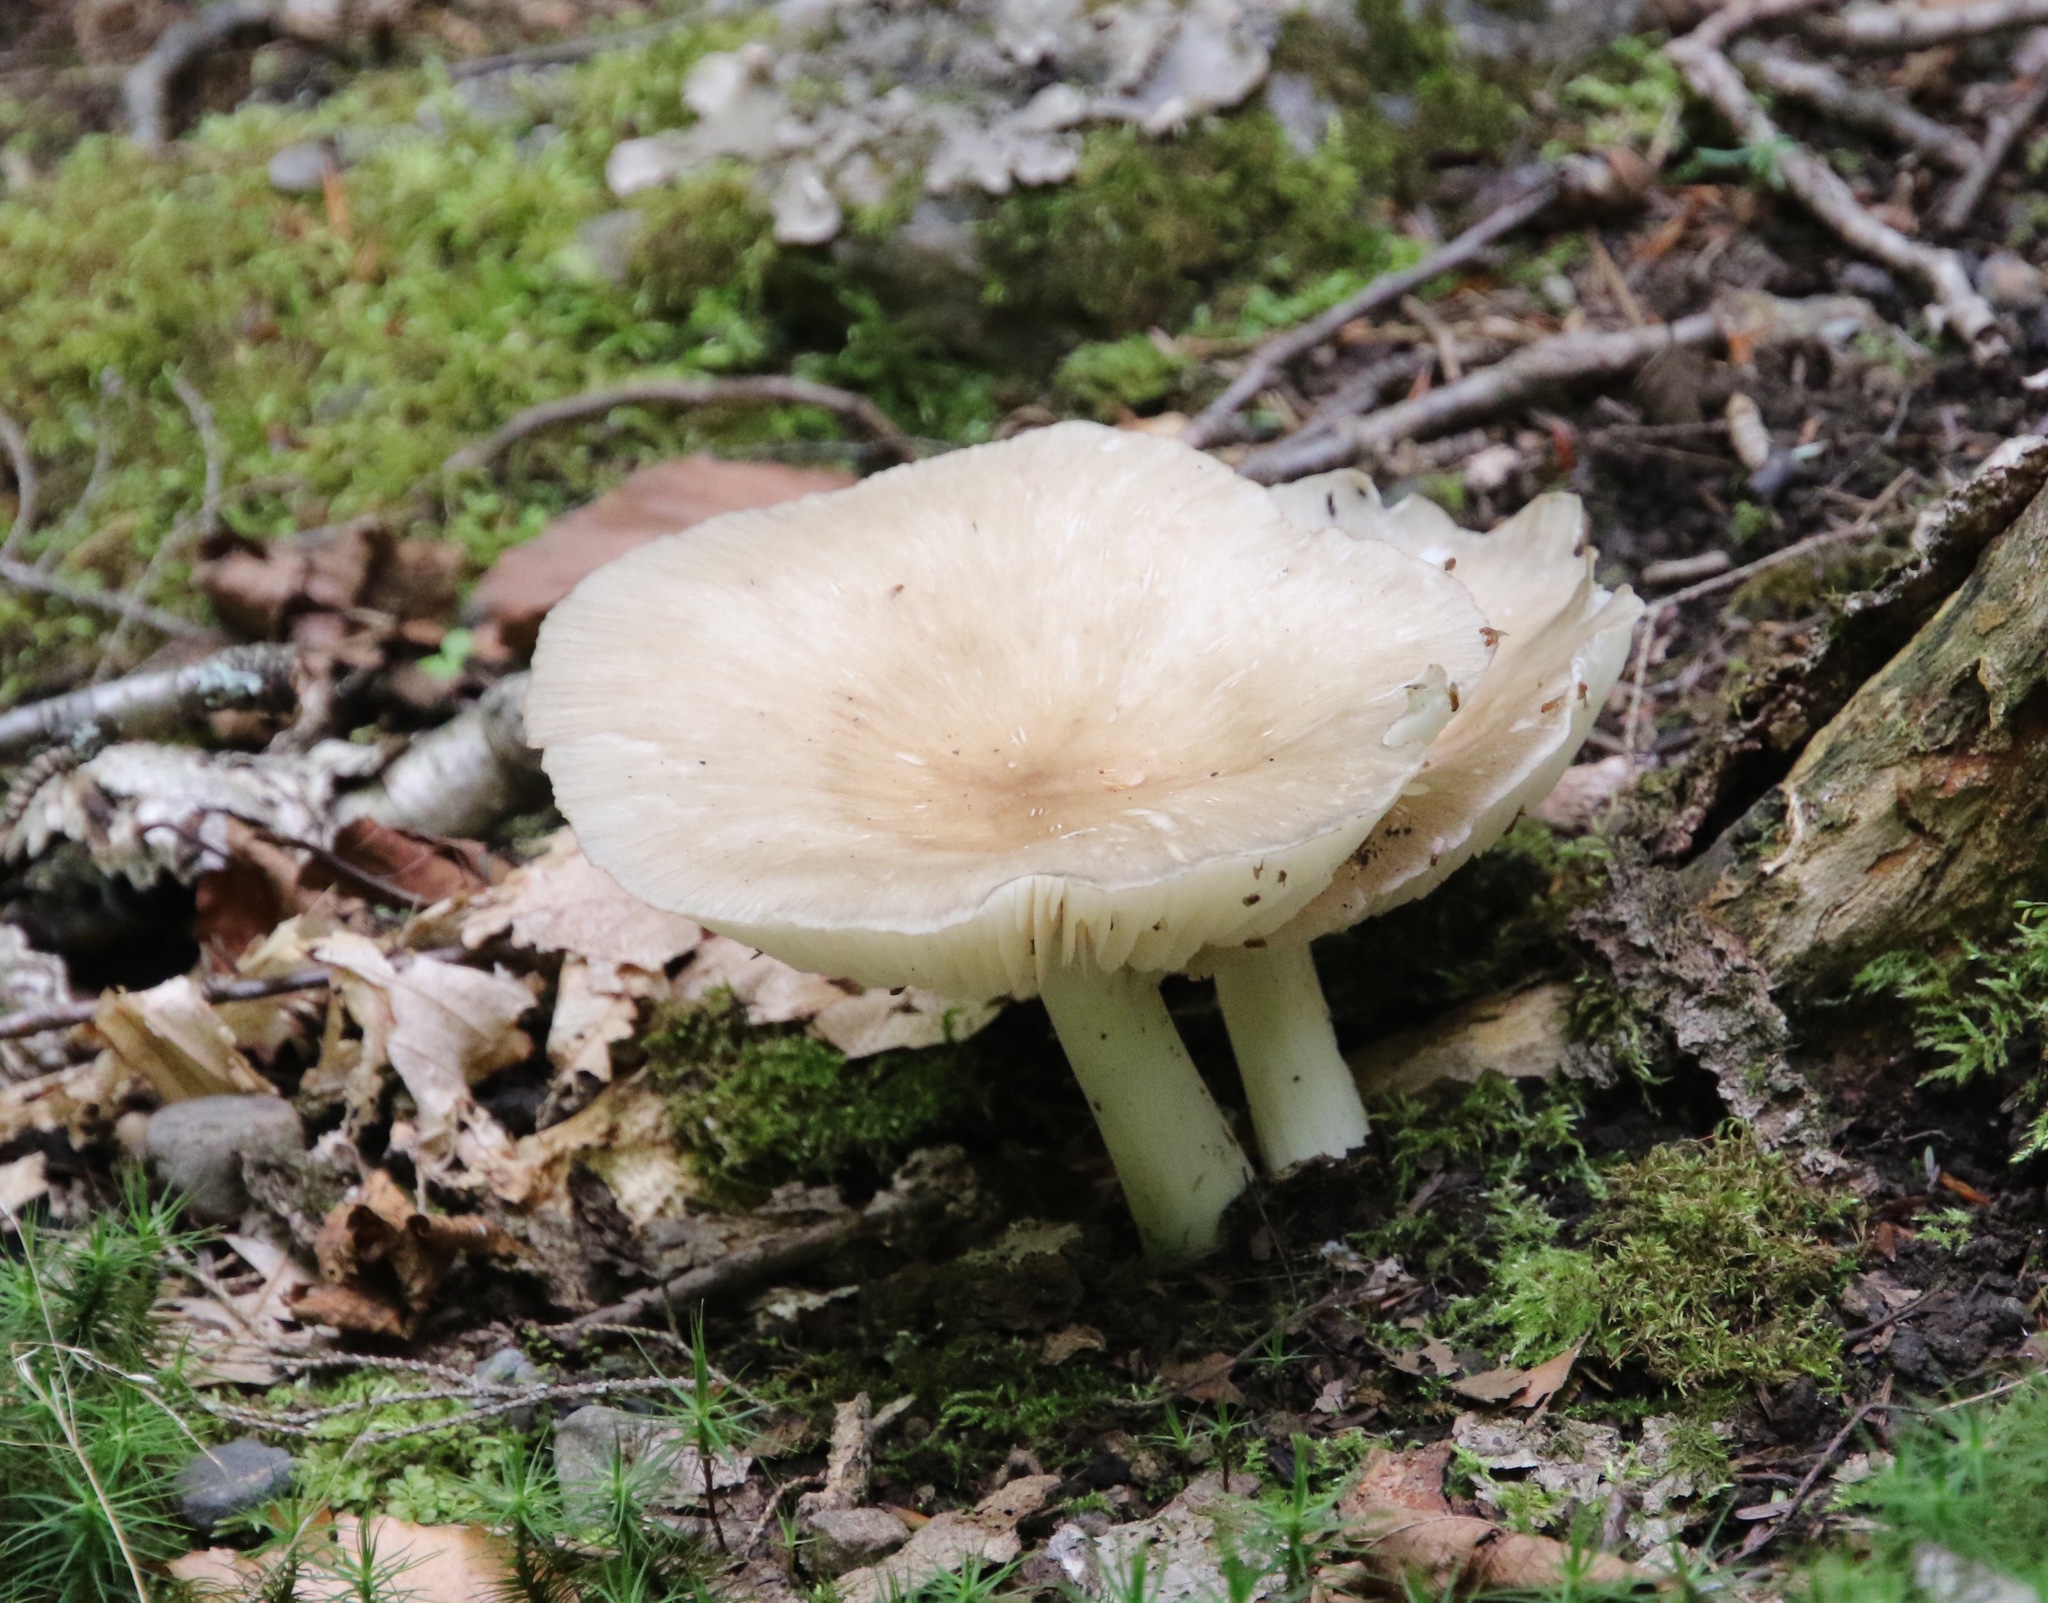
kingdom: Fungi
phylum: Basidiomycota
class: Agaricomycetes
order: Agaricales
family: Tricholomataceae
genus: Megacollybia
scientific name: Megacollybia rodmanii
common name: Eastern american platterful mushroom
